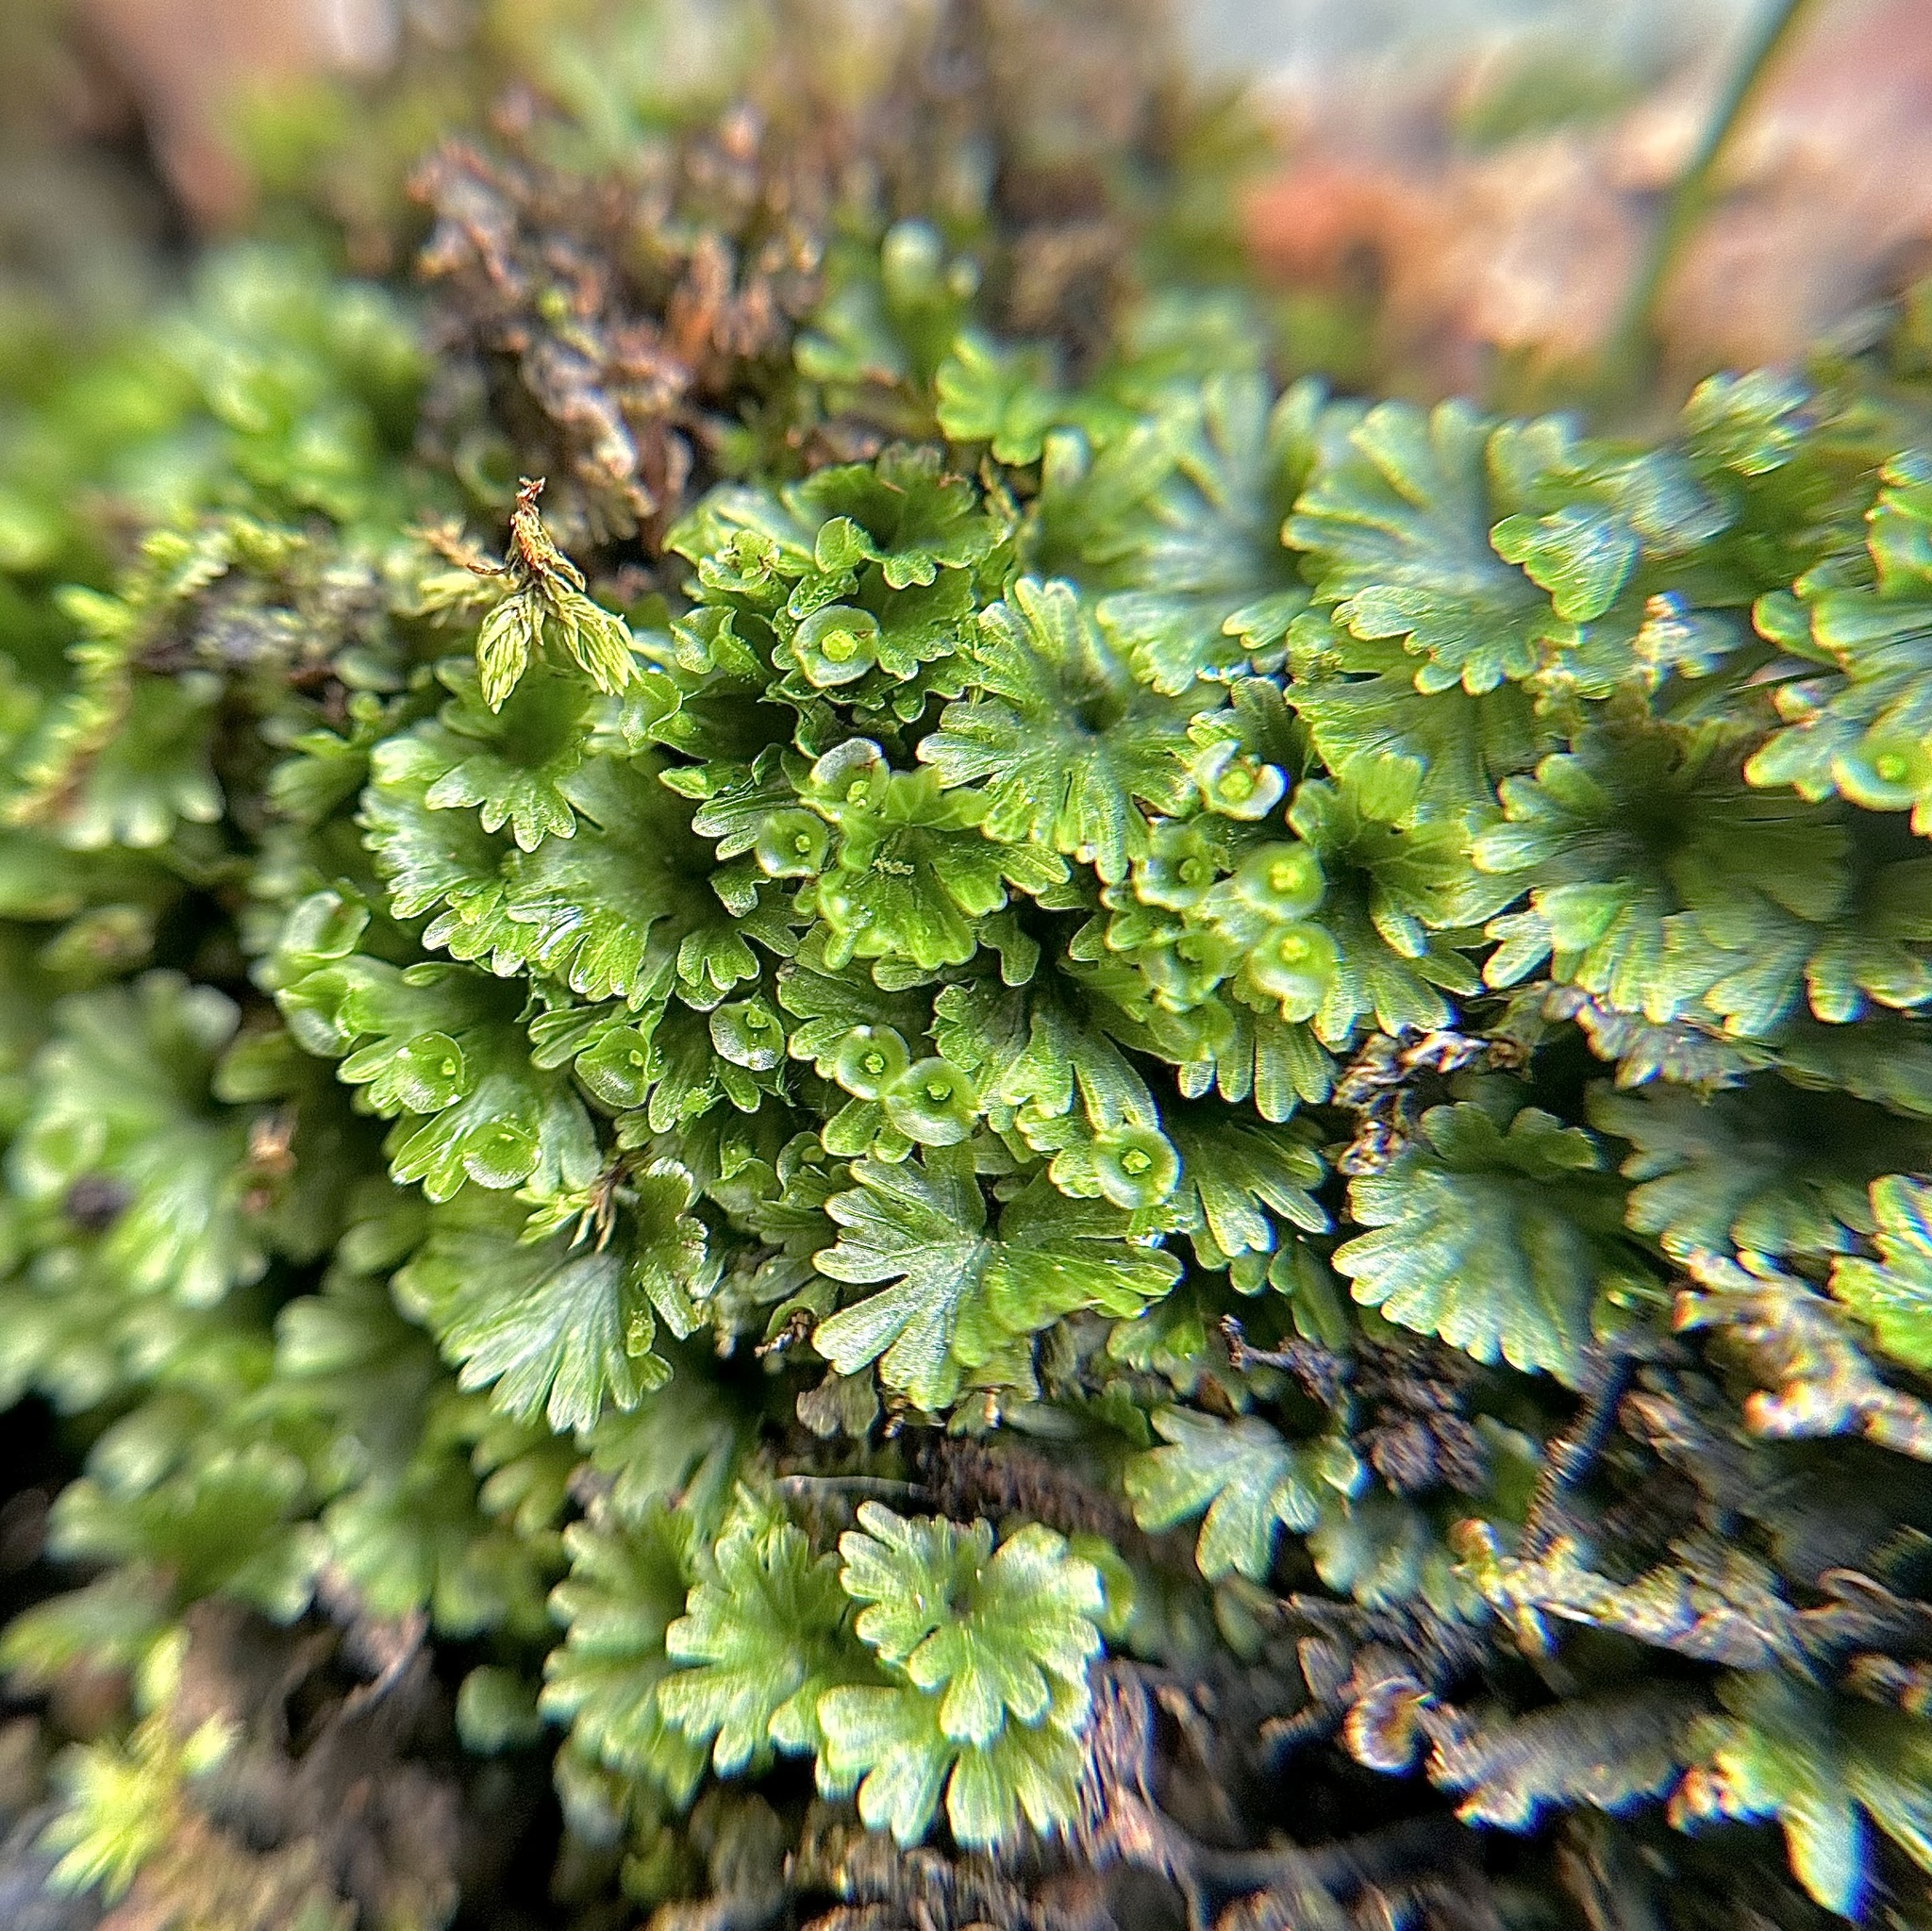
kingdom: Plantae
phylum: Tracheophyta
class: Polypodiopsida
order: Hymenophyllales
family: Hymenophyllaceae
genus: Crepidomanes
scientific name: Crepidomanes parvulum
